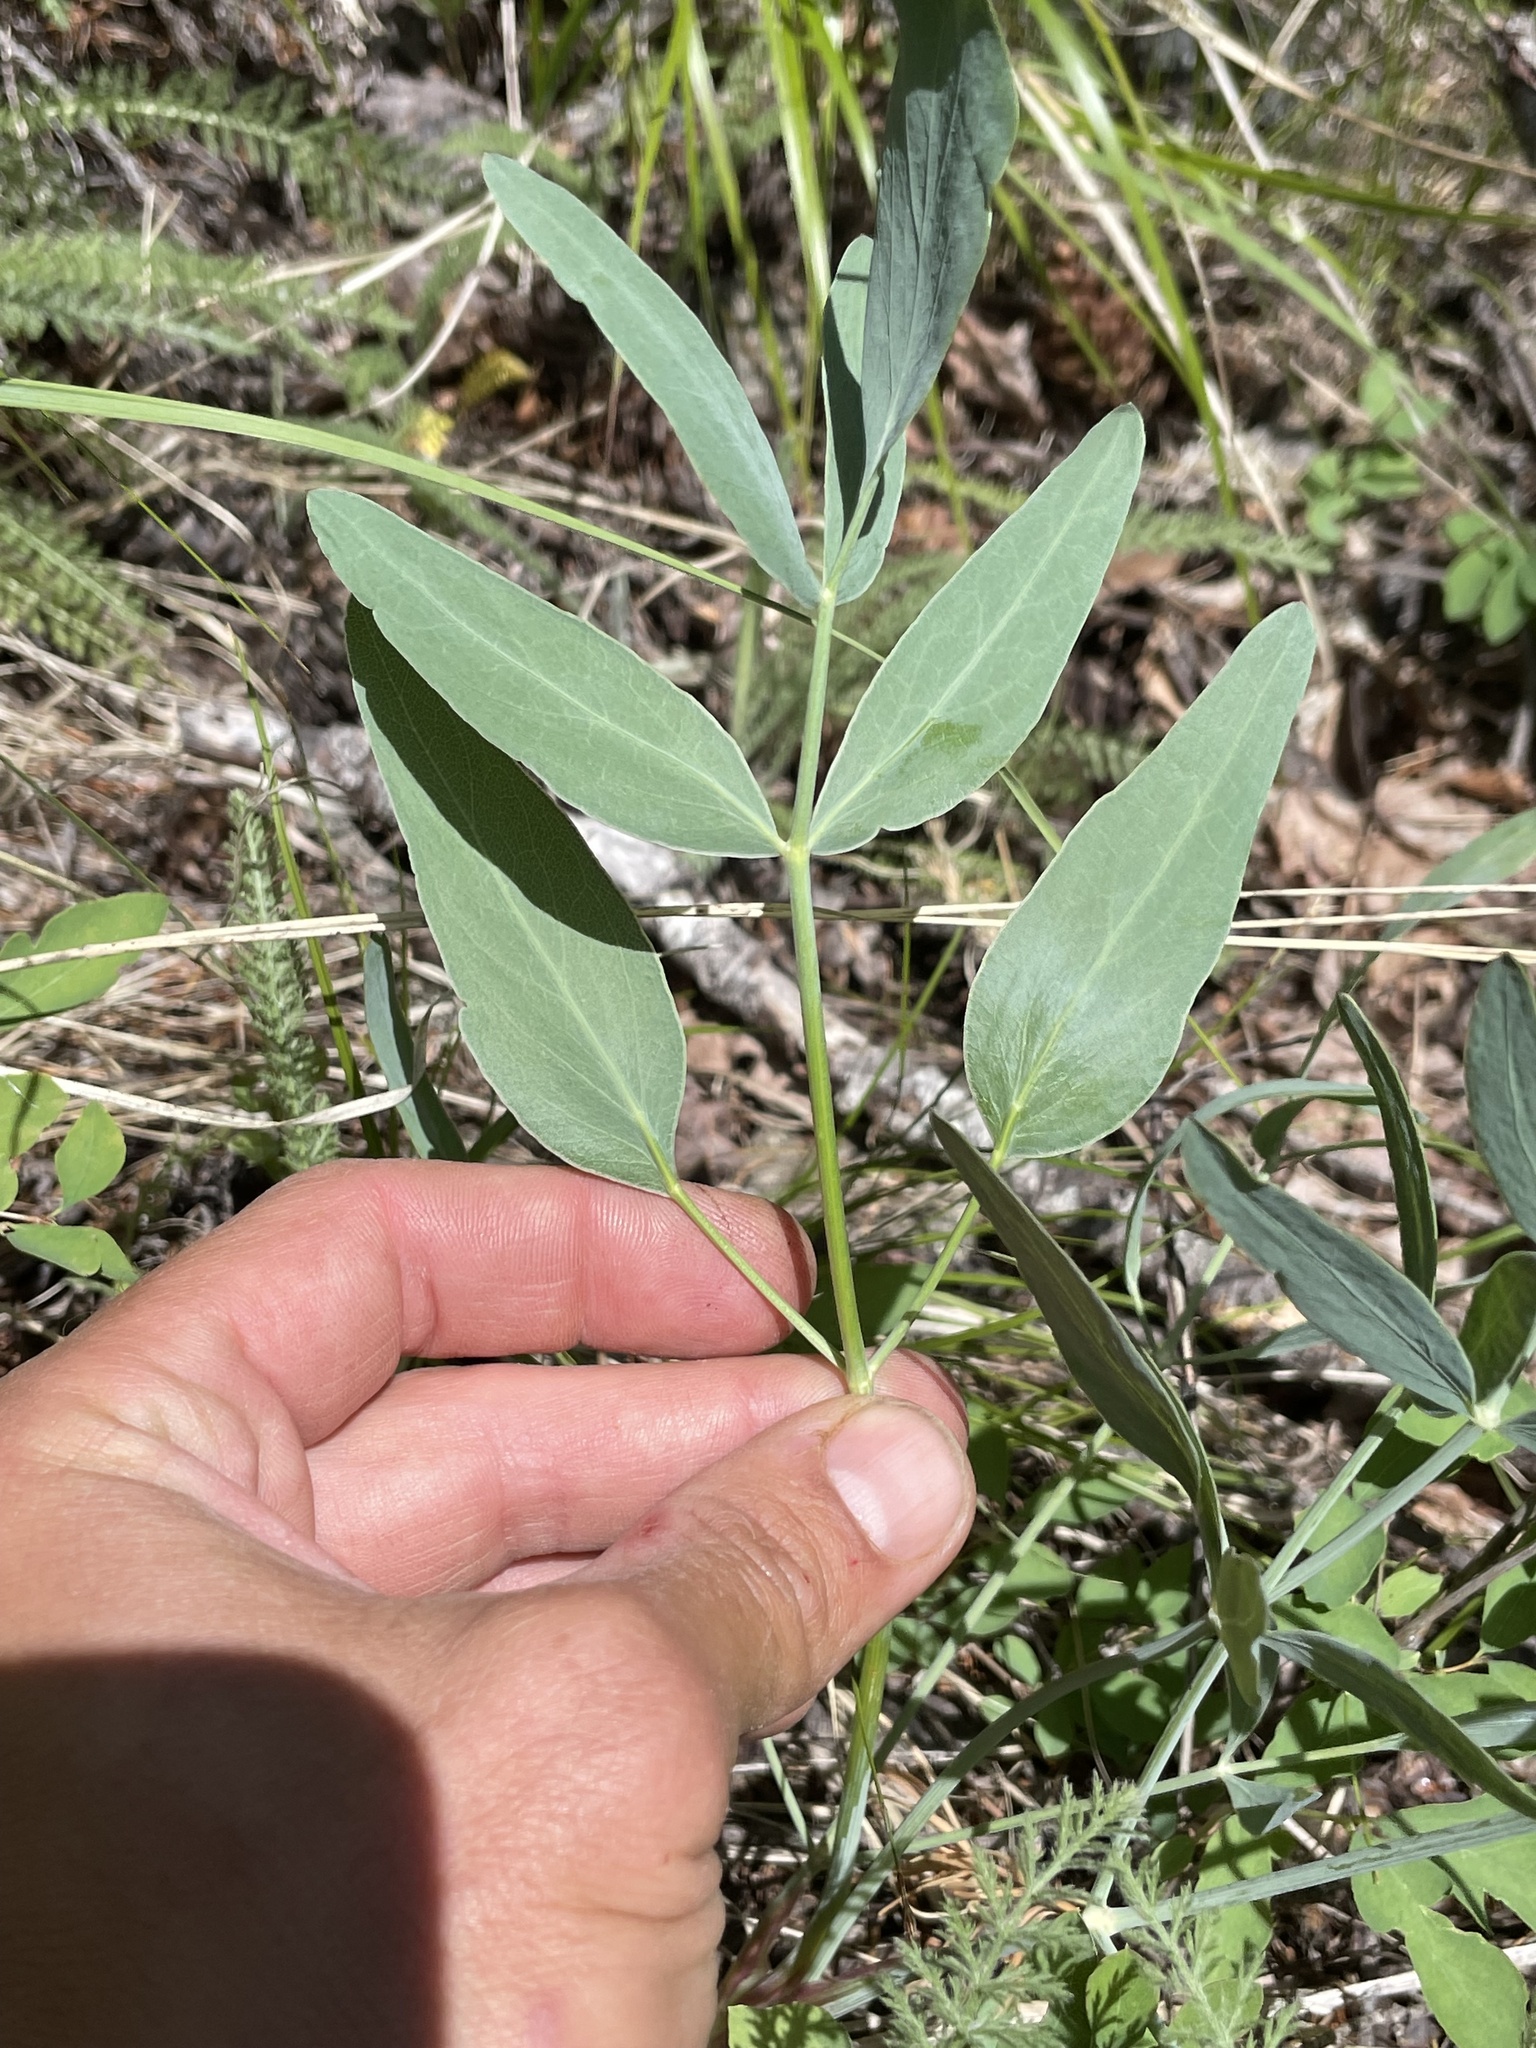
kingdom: Plantae
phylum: Tracheophyta
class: Magnoliopsida
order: Apiales
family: Apiaceae
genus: Lomatium
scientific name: Lomatium nudicaule
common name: Pestle lomatium
